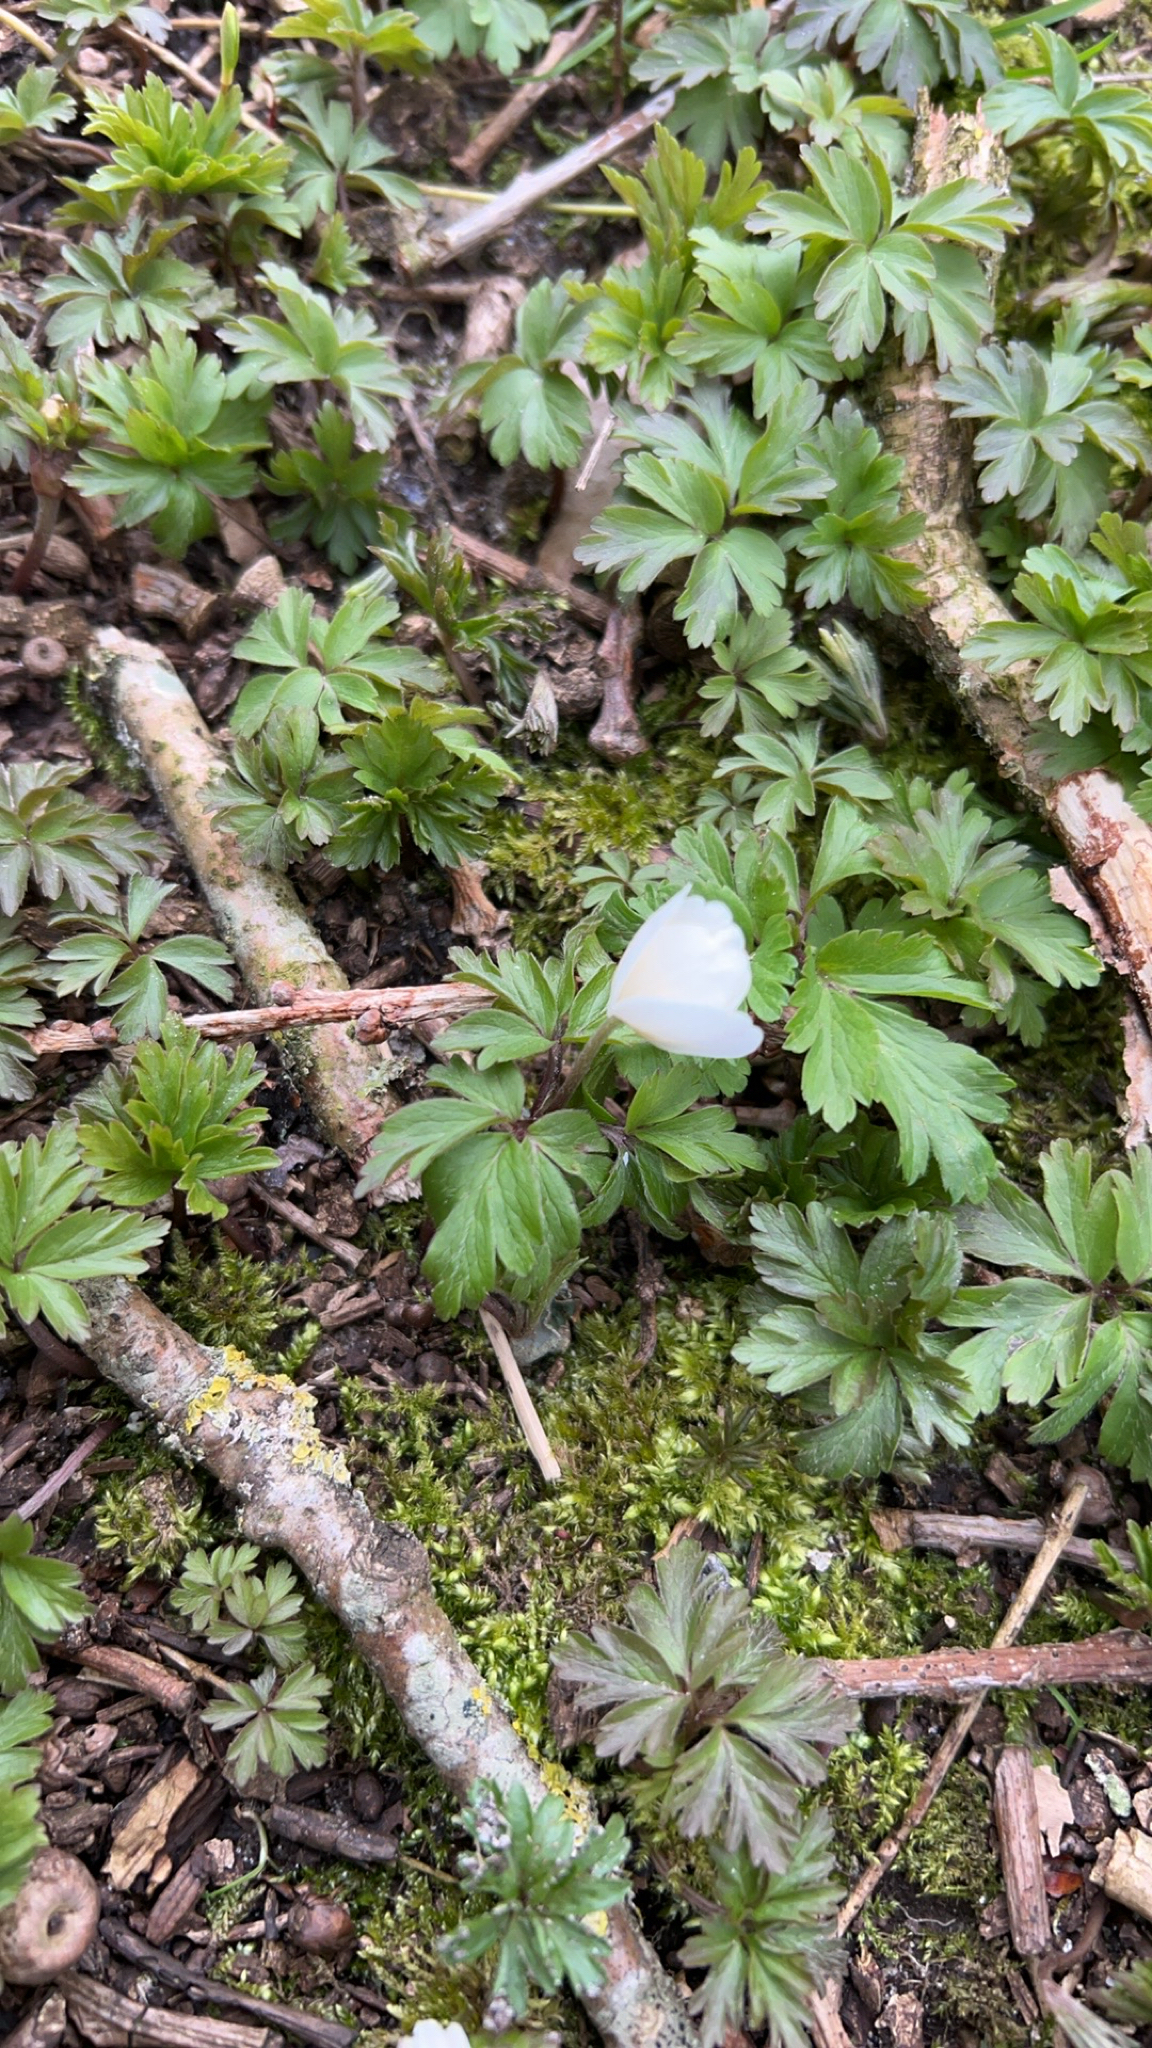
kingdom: Plantae
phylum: Tracheophyta
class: Magnoliopsida
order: Ranunculales
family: Ranunculaceae
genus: Anemone
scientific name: Anemone nemorosa
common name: Wood anemone
